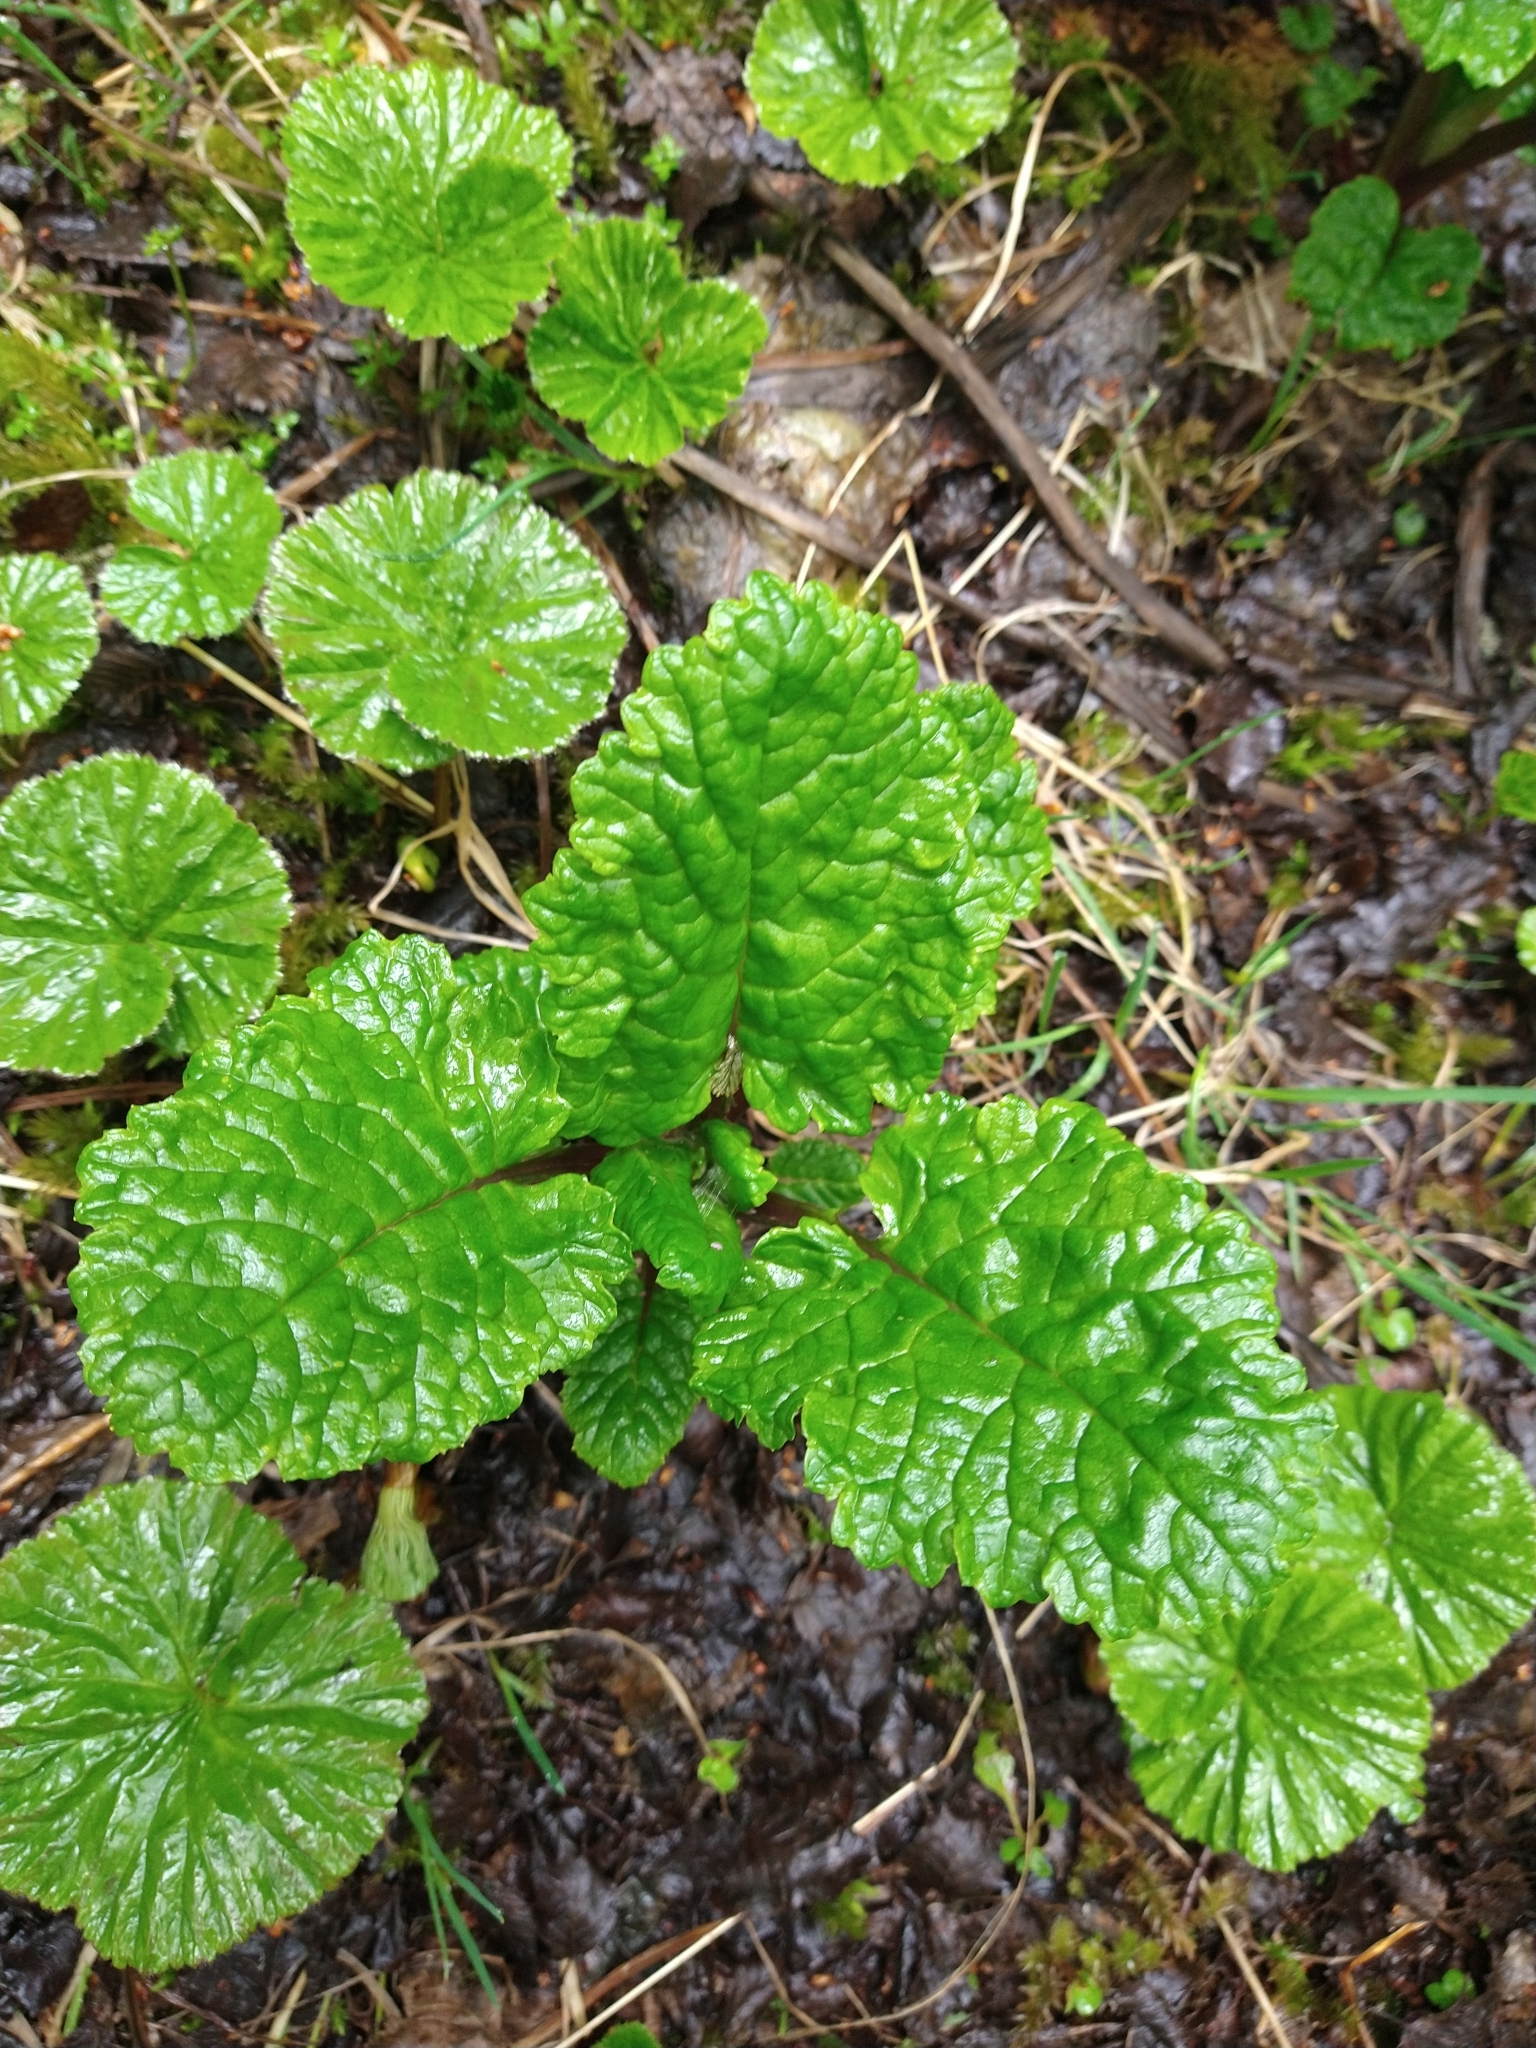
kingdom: Plantae
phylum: Tracheophyta
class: Magnoliopsida
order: Asterales
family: Asteraceae
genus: Iocenes
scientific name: Iocenes virens
